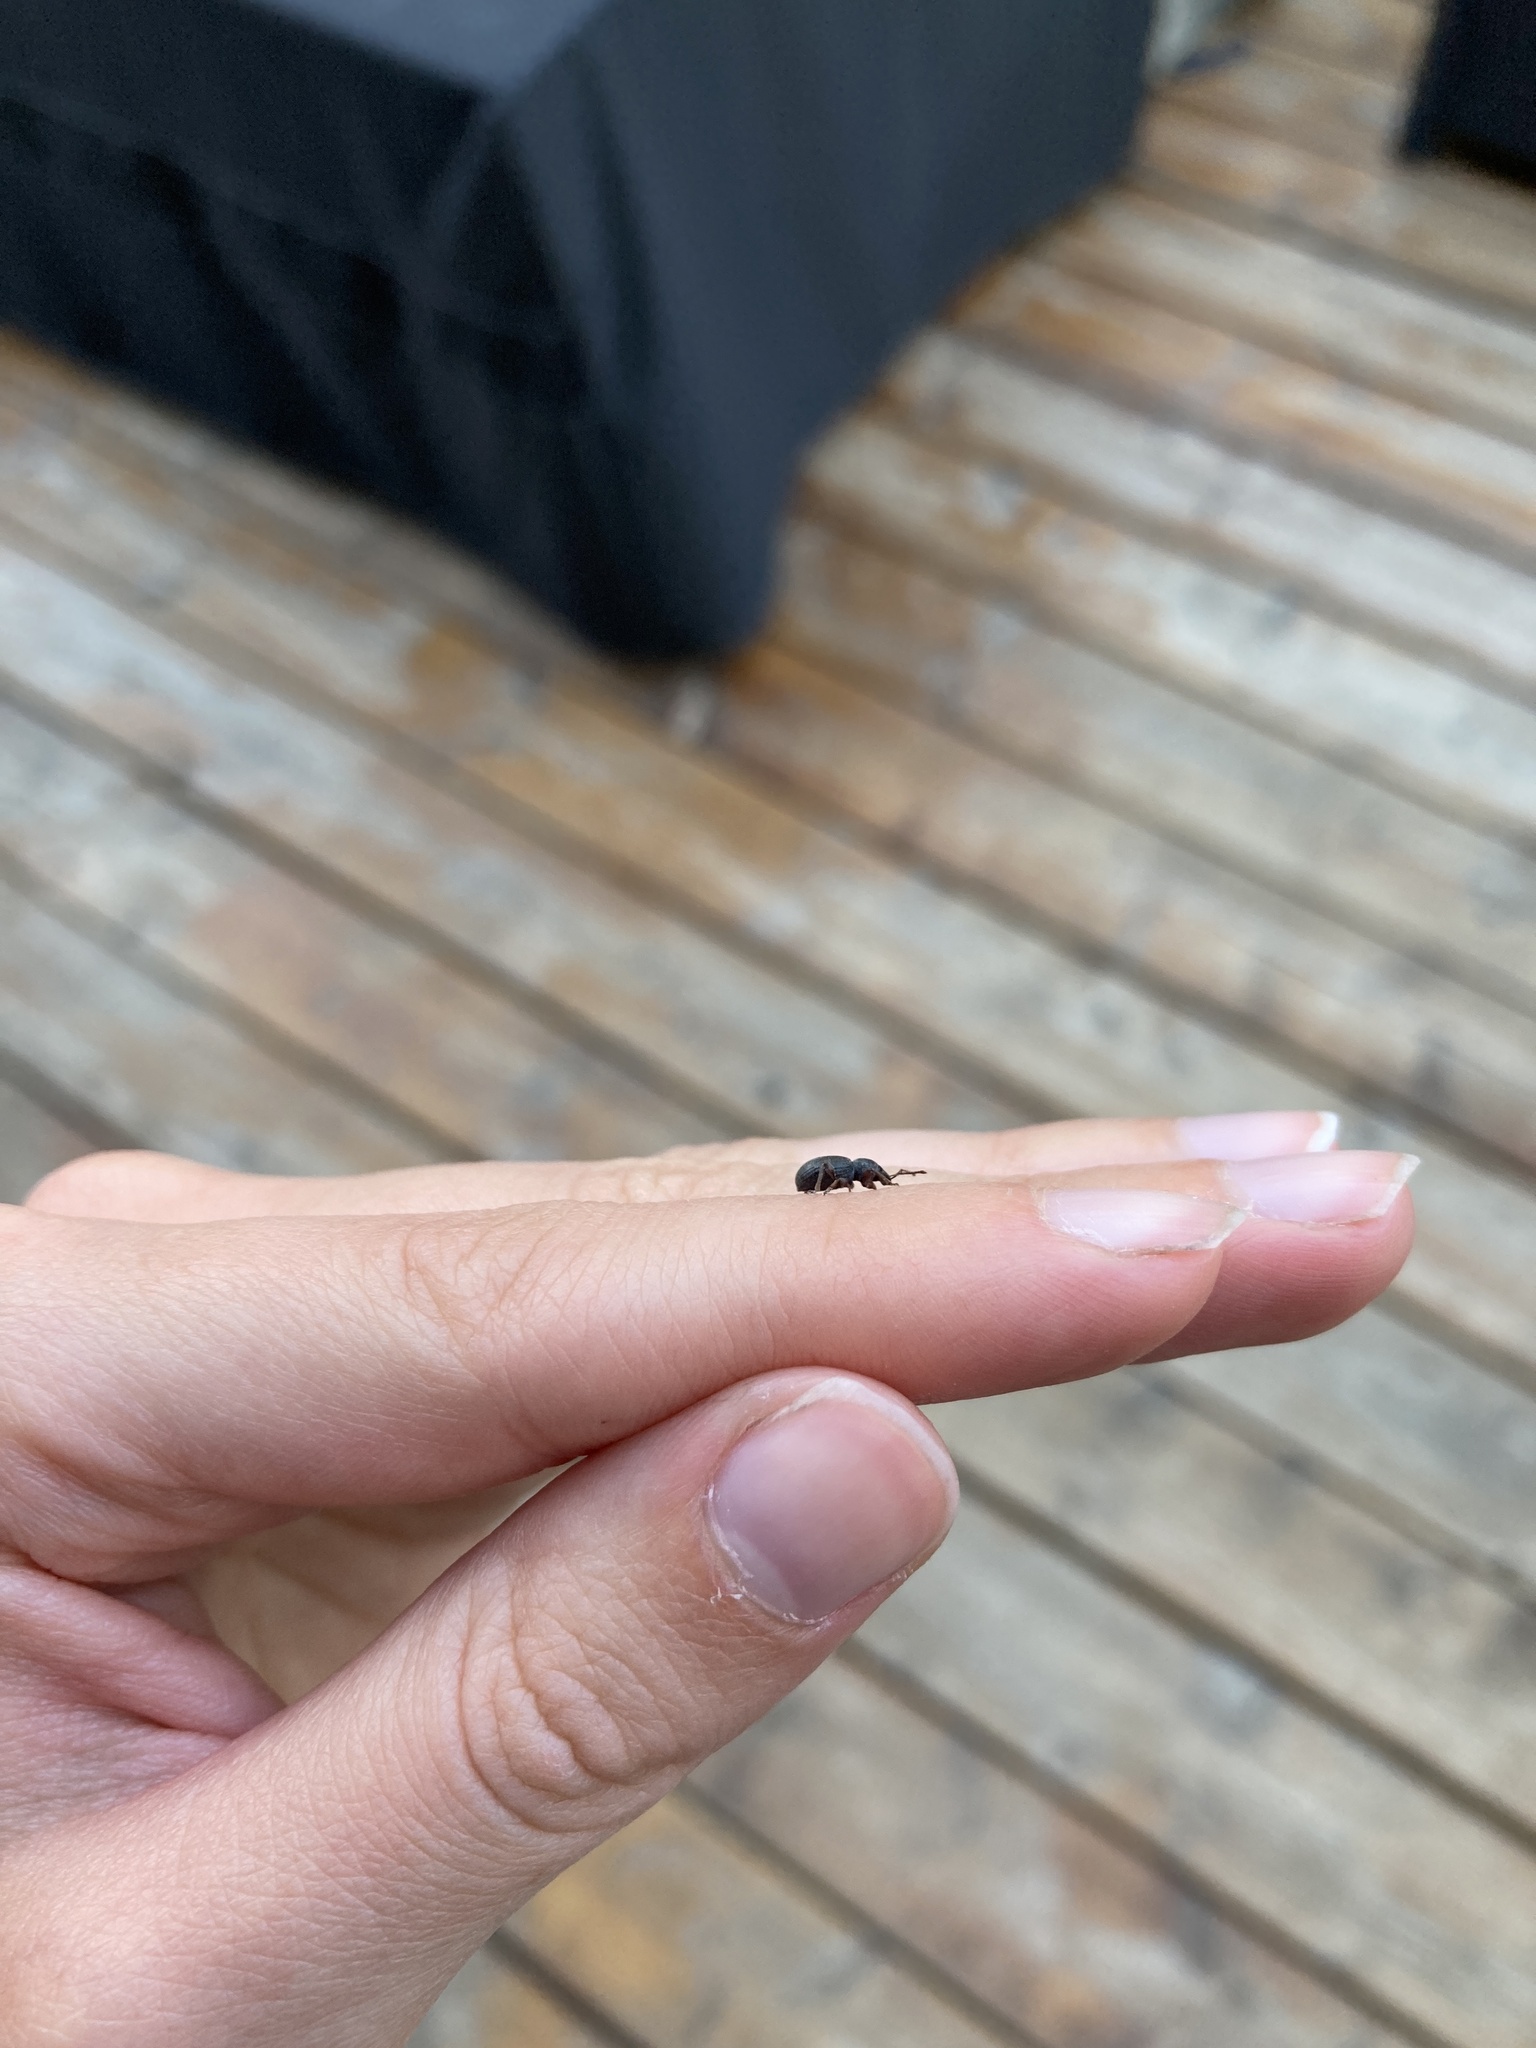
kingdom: Animalia
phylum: Arthropoda
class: Insecta
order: Coleoptera
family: Curculionidae
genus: Otiorhynchus
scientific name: Otiorhynchus ovatus
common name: Strawberry root weevil
